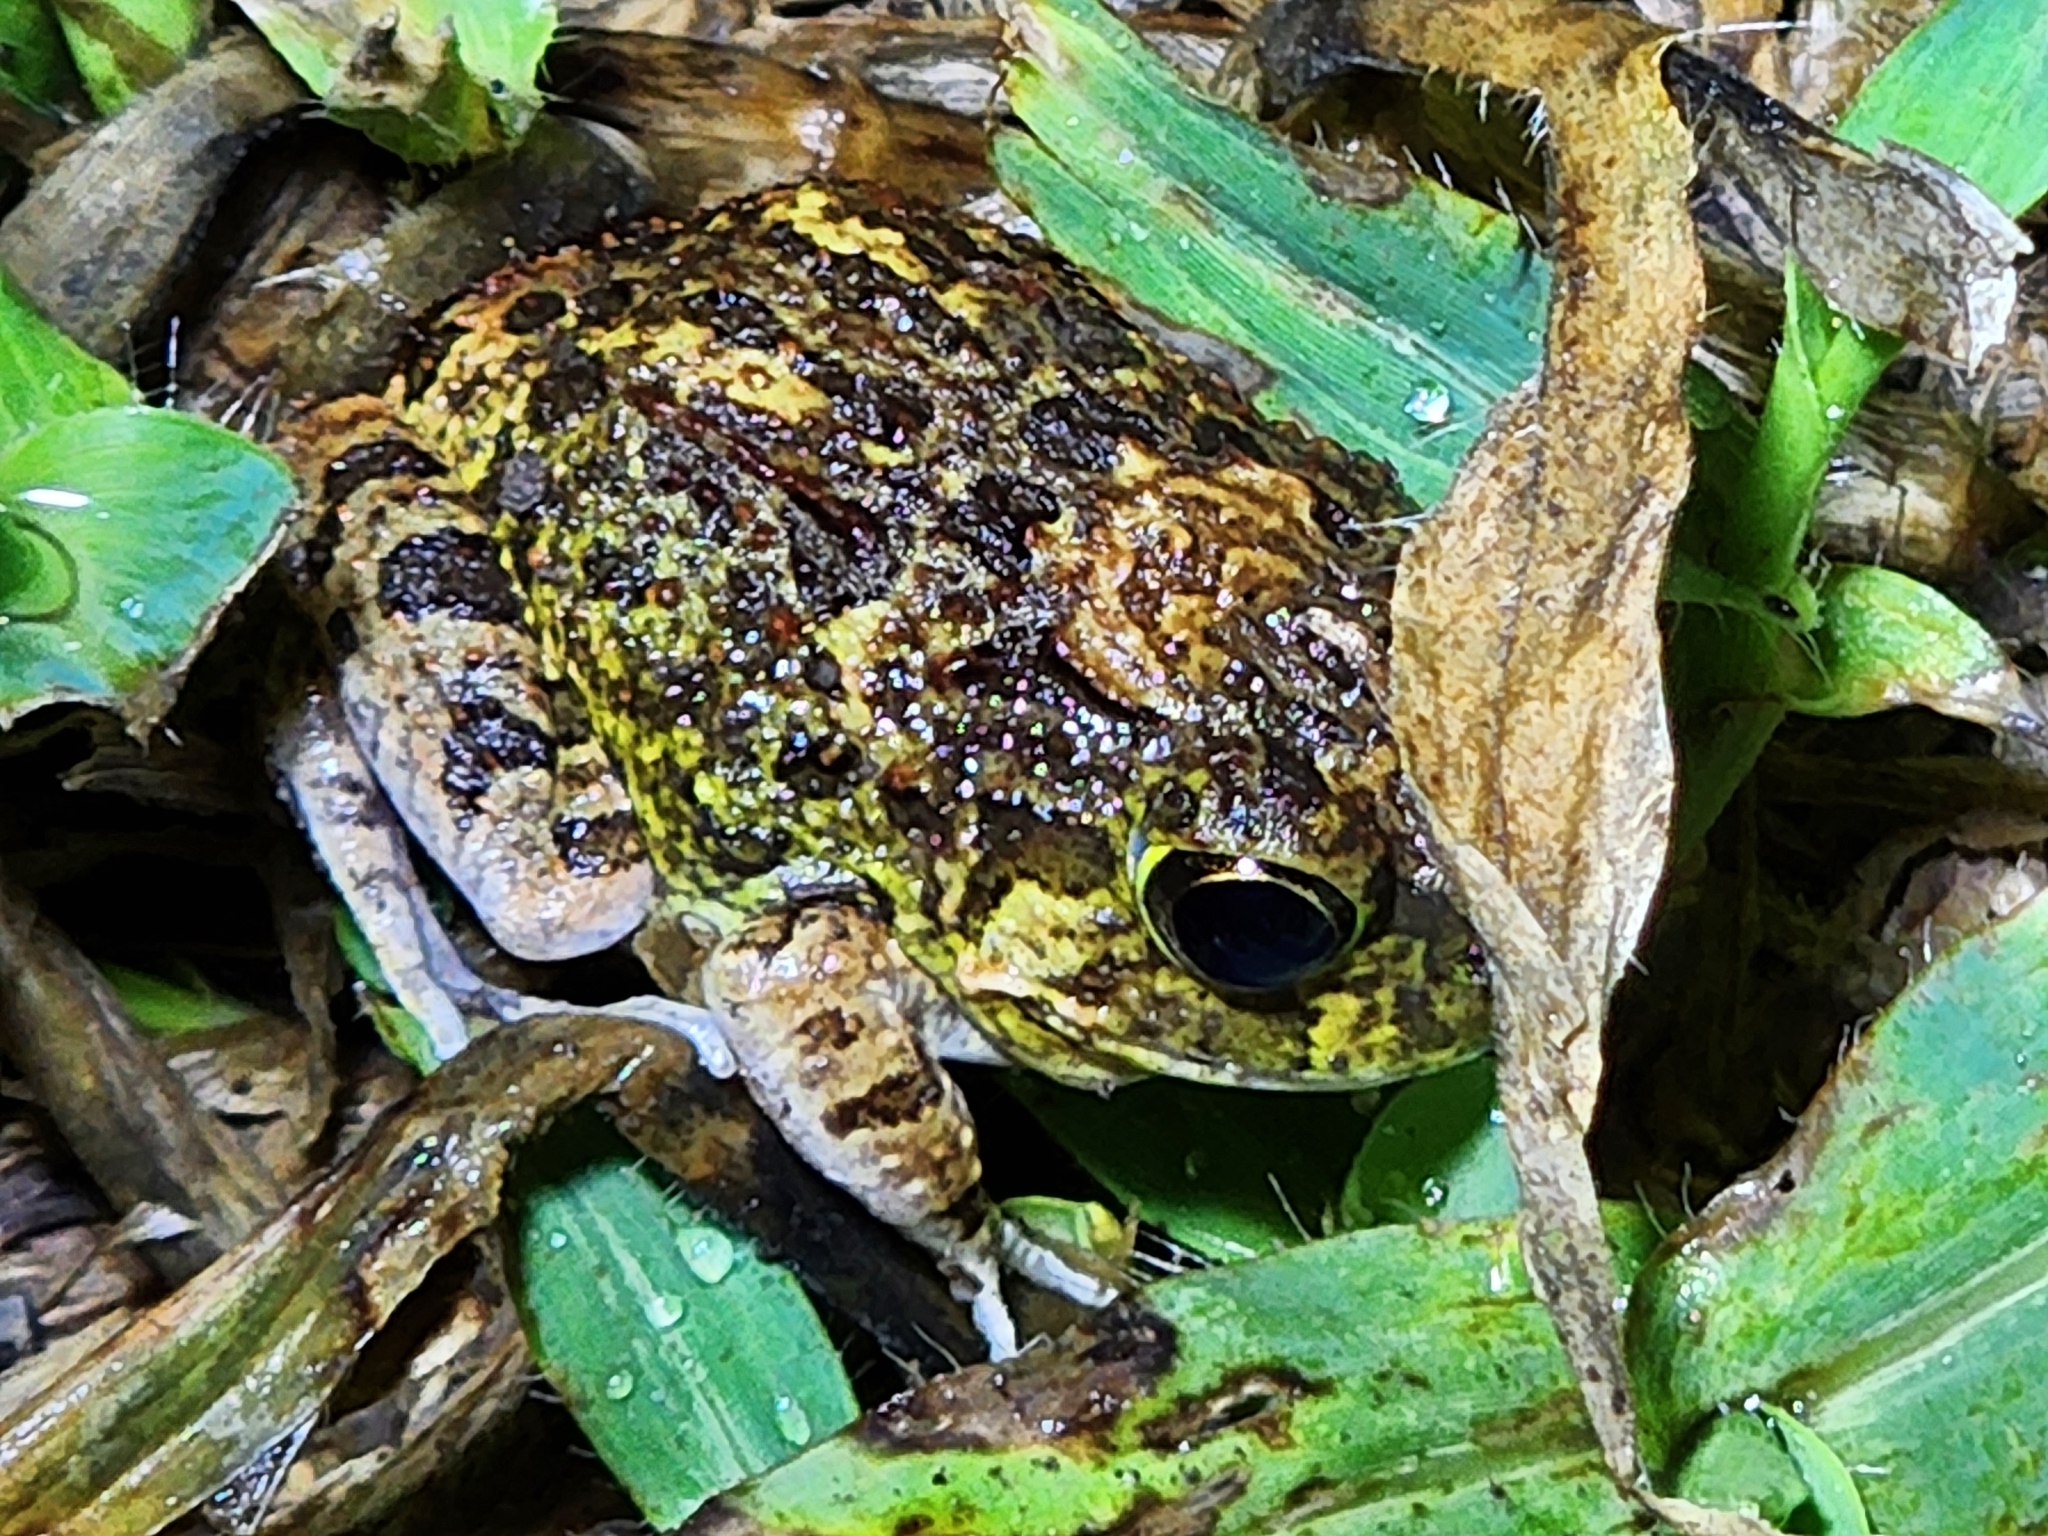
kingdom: Animalia
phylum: Chordata
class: Amphibia
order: Anura
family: Limnodynastidae
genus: Platyplectrum
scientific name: Platyplectrum ornatum
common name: Ornate burrowing frog
